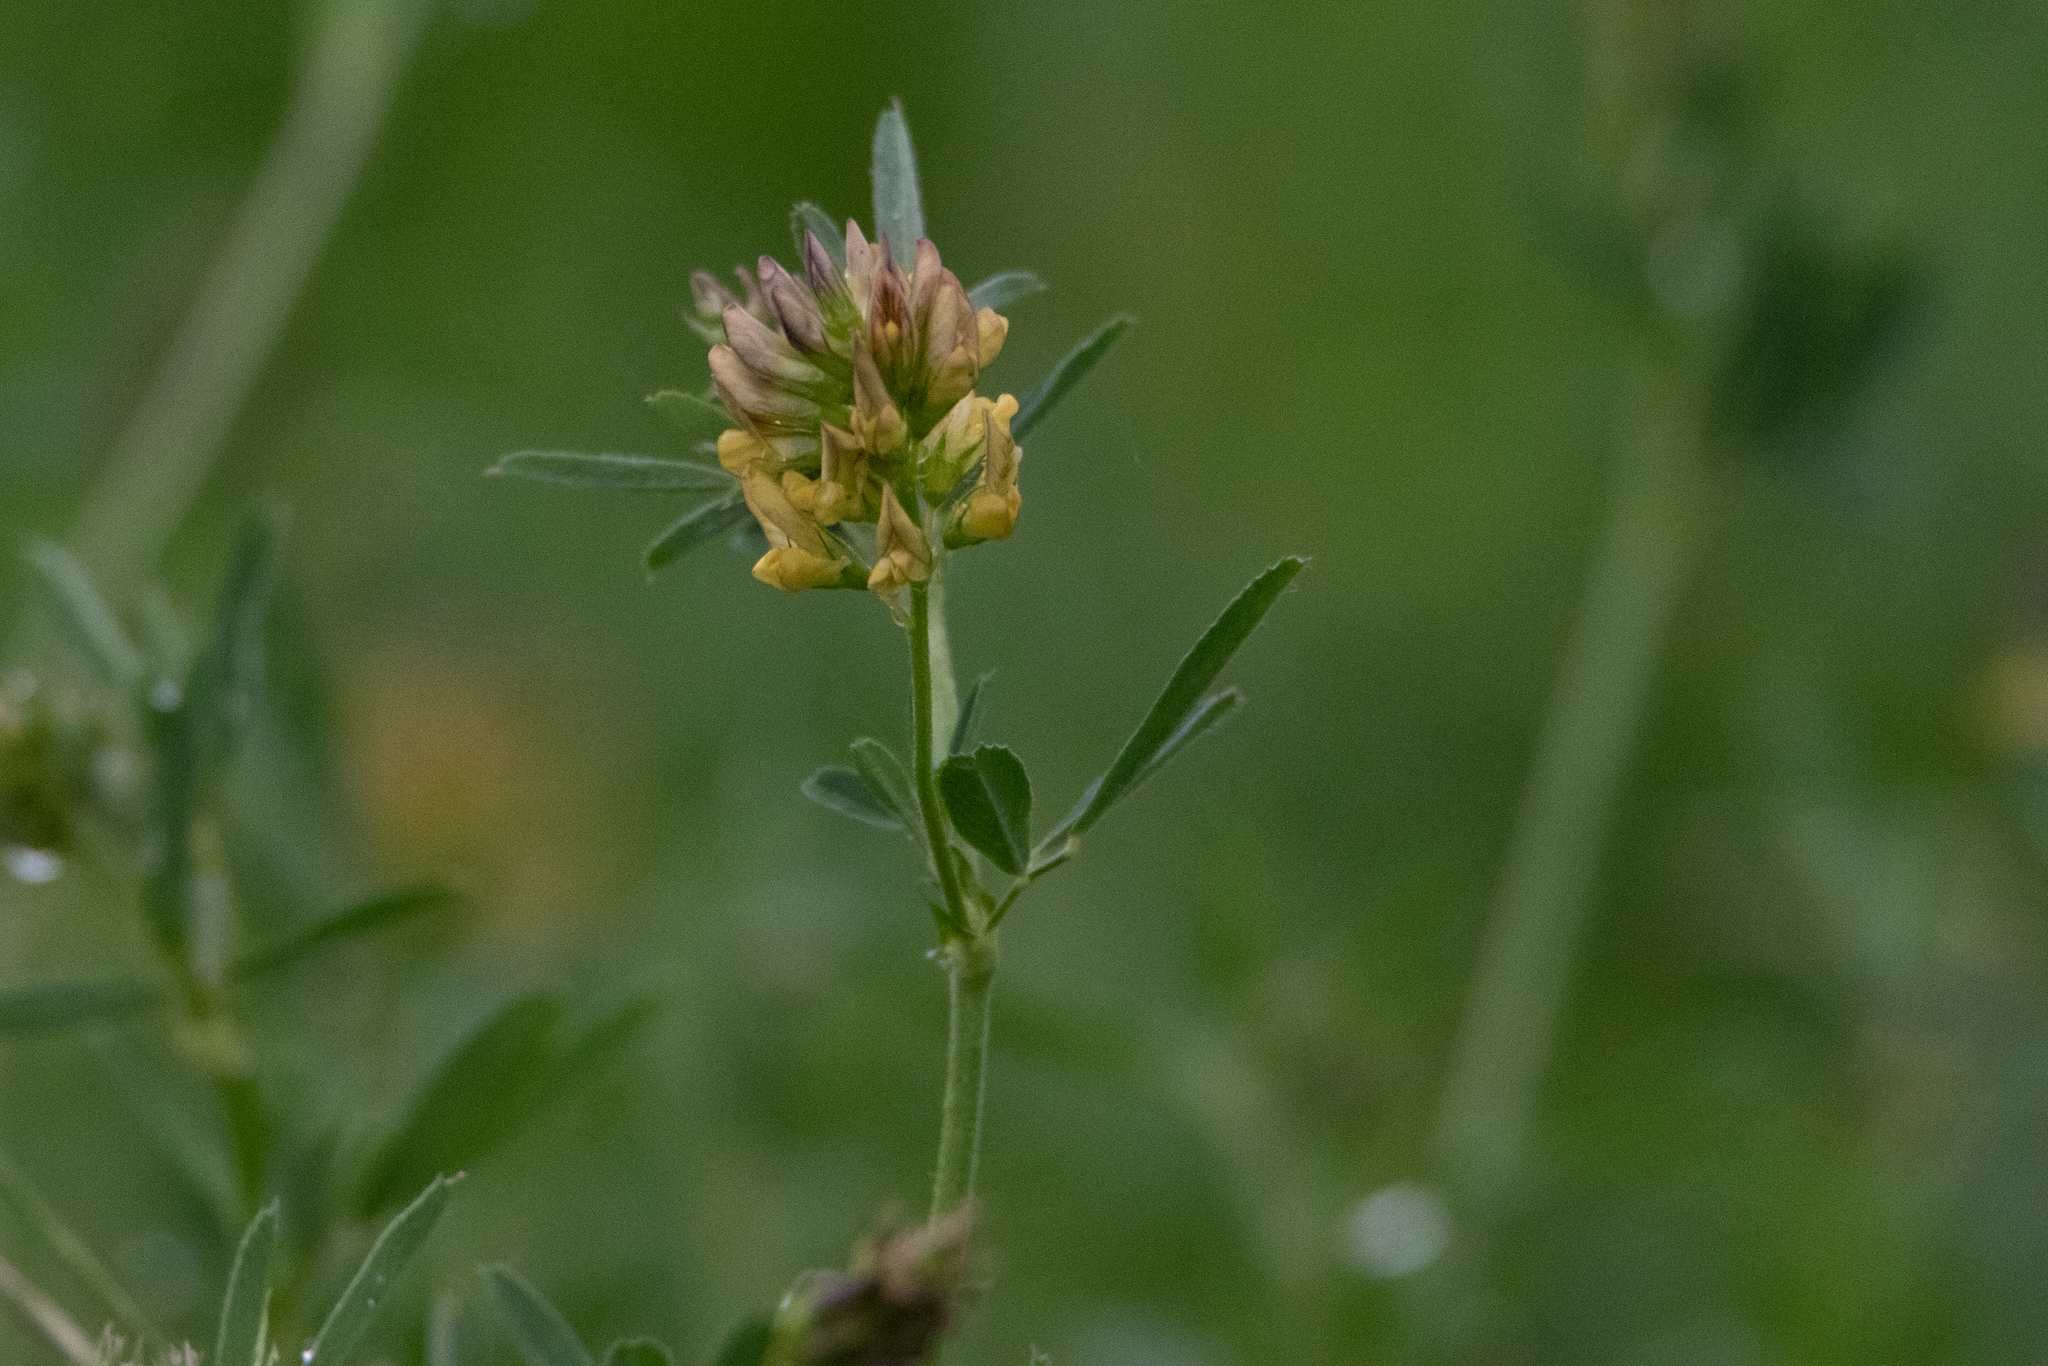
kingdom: Plantae
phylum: Tracheophyta
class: Magnoliopsida
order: Fabales
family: Fabaceae
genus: Medicago
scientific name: Medicago varia
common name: Sand lucerne
